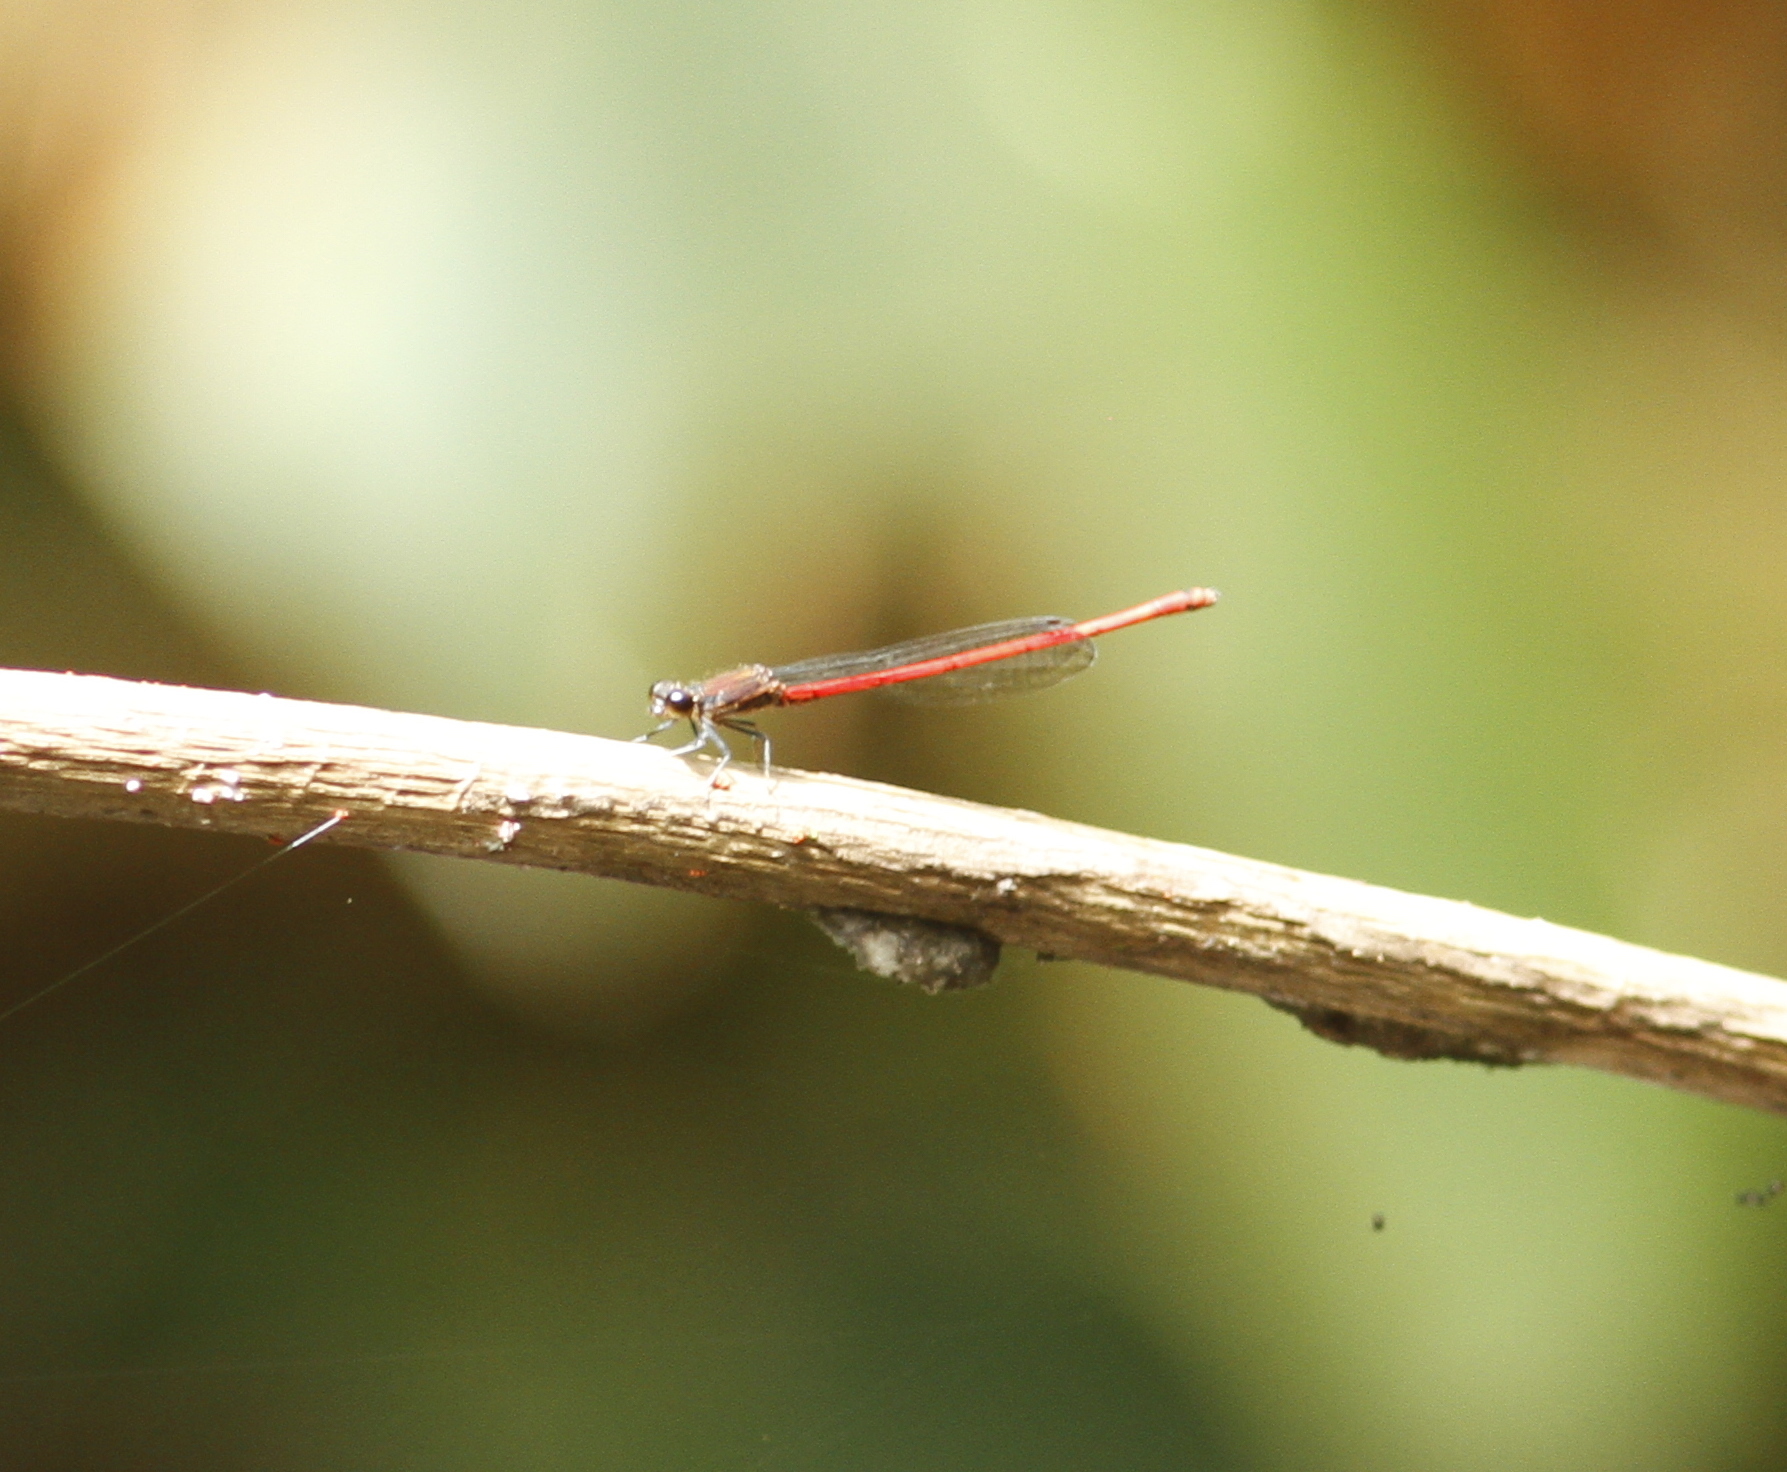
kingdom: Animalia
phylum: Arthropoda
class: Insecta
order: Odonata
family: Coenagrionidae
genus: Neoneura
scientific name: Neoneura myrthea
